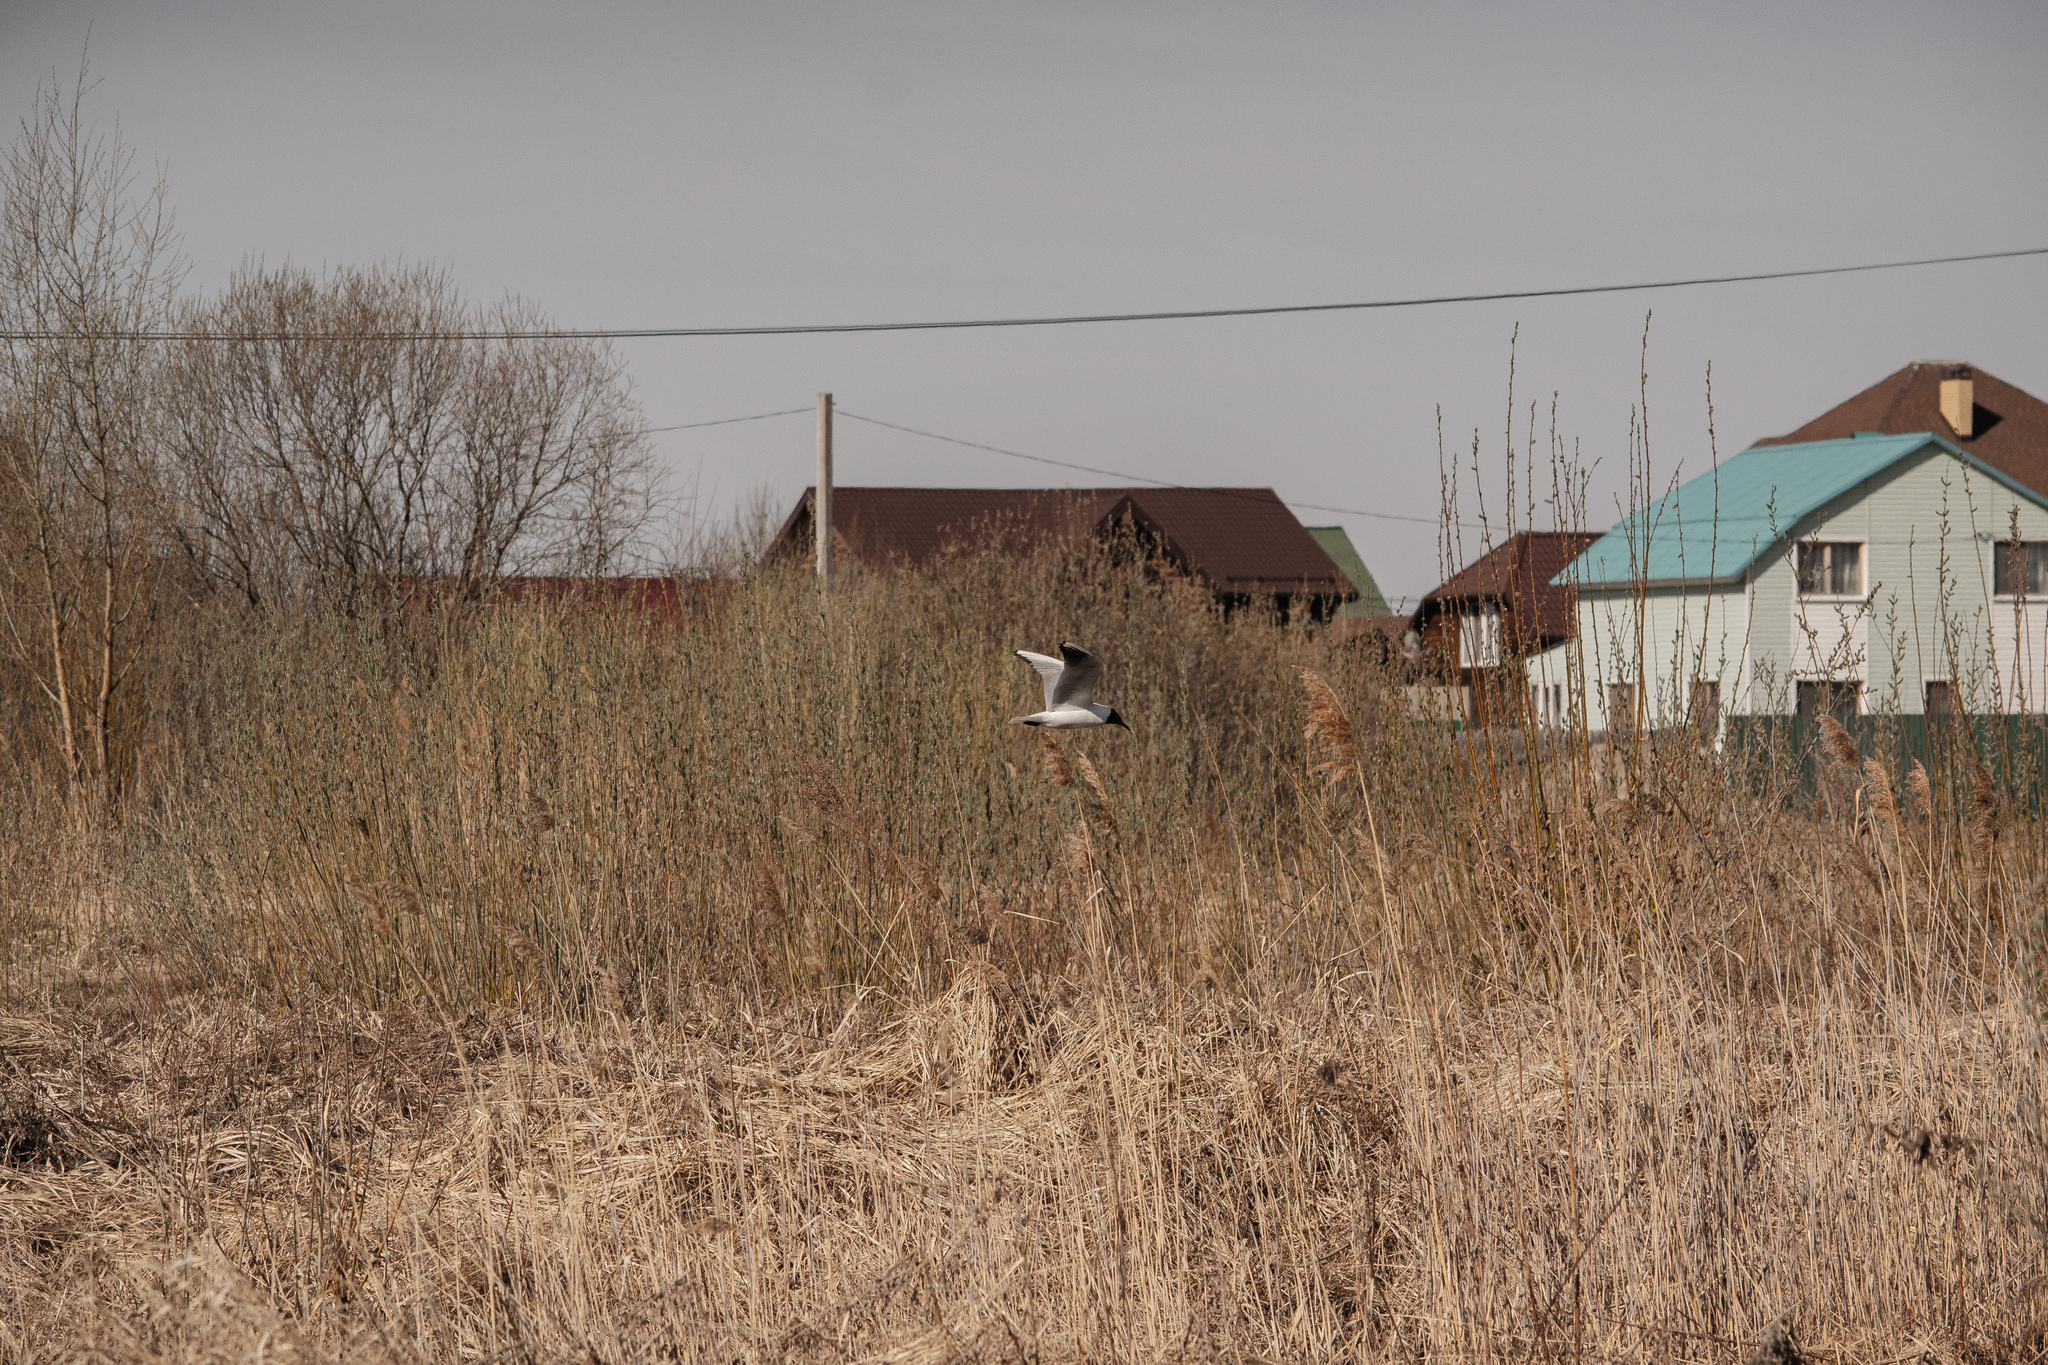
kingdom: Animalia
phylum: Chordata
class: Aves
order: Charadriiformes
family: Laridae
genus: Chroicocephalus
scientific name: Chroicocephalus ridibundus
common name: Black-headed gull
